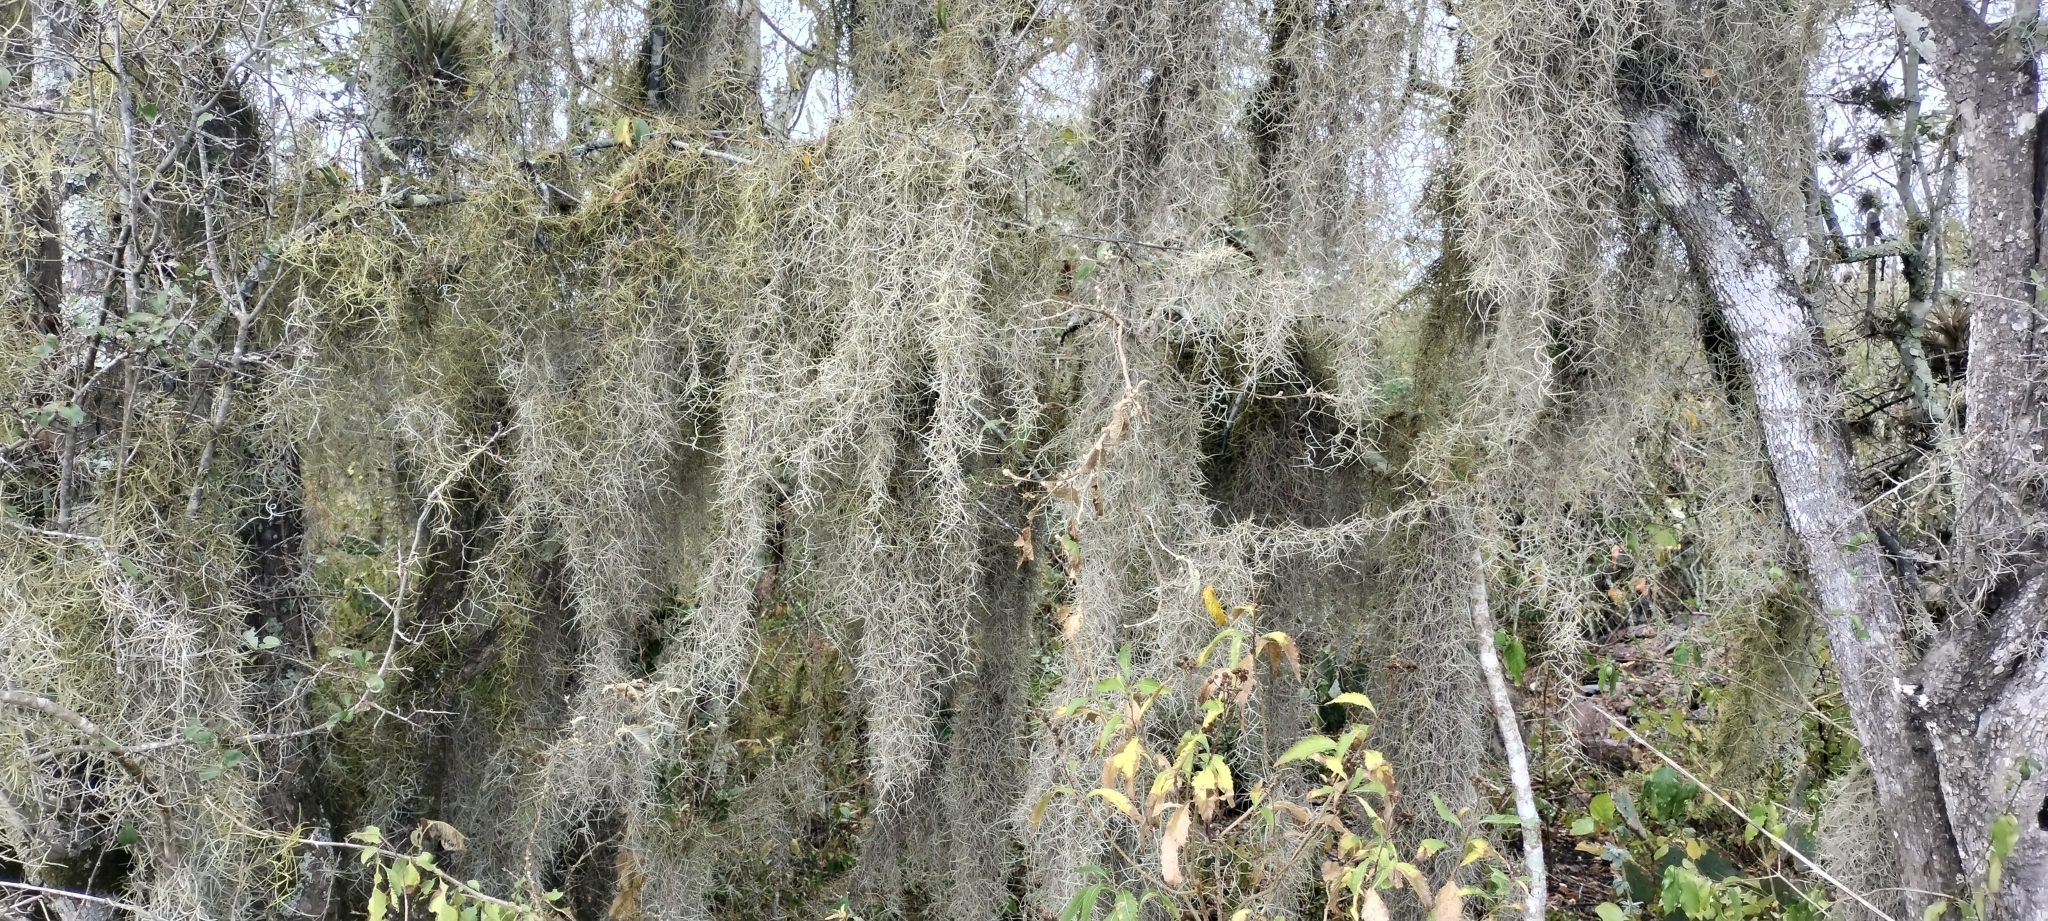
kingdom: Plantae
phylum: Tracheophyta
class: Liliopsida
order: Poales
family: Bromeliaceae
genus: Tillandsia
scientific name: Tillandsia usneoides
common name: Spanish moss
